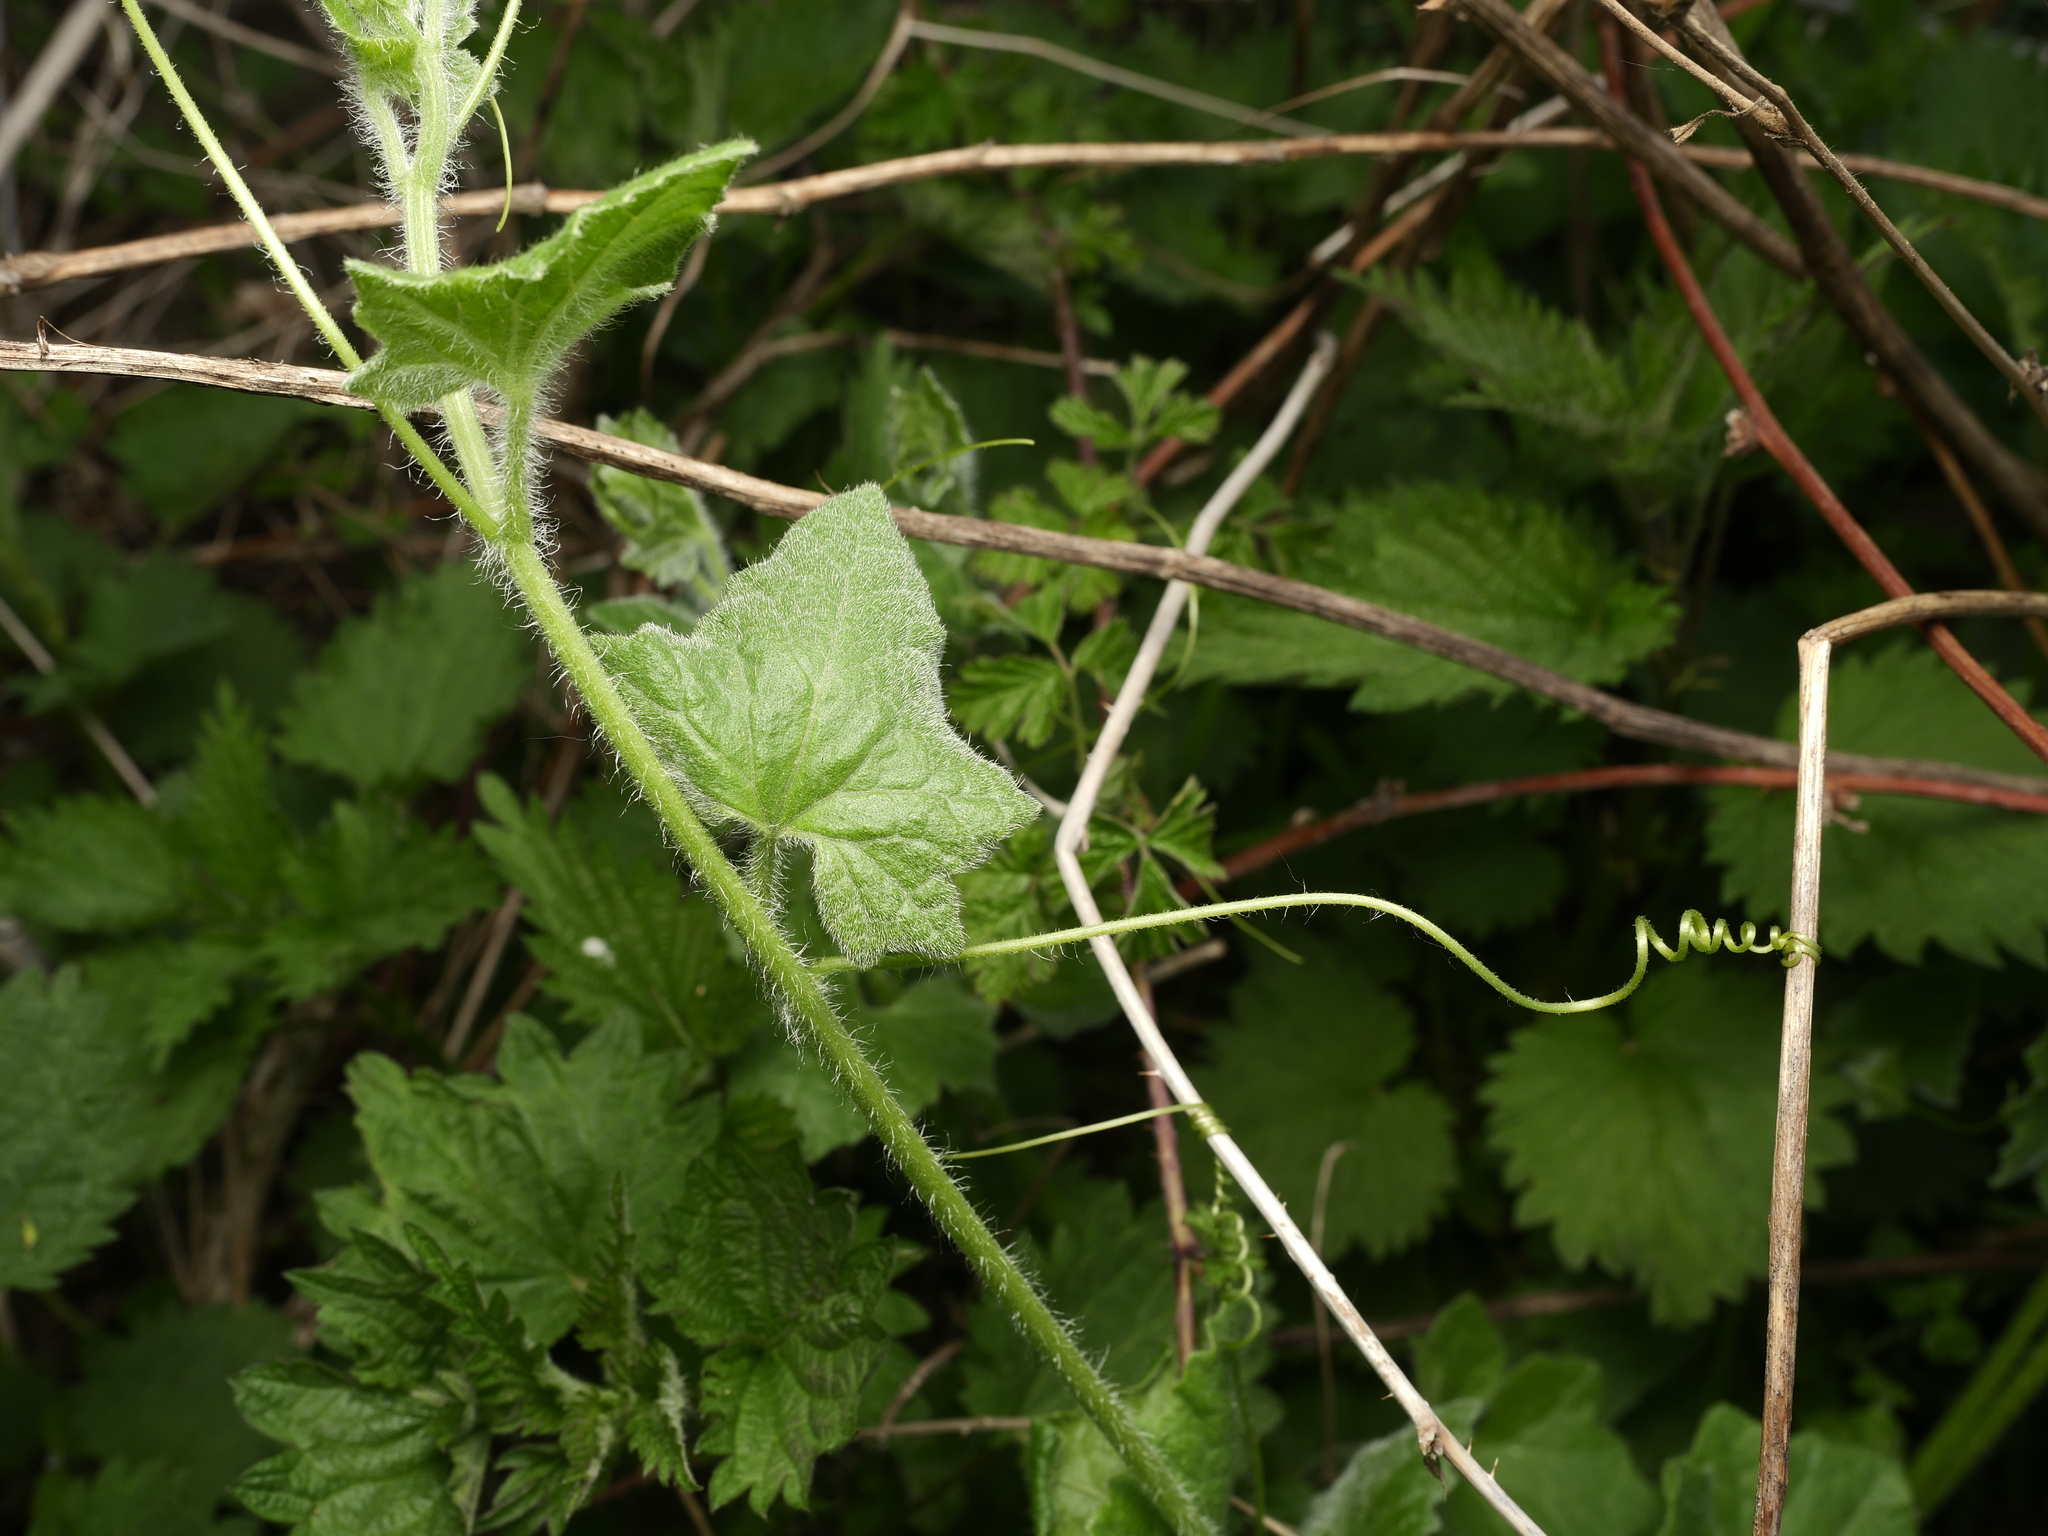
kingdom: Plantae
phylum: Tracheophyta
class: Magnoliopsida
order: Cucurbitales
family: Cucurbitaceae
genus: Bryonia
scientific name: Bryonia cretica
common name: Cretan bryony
